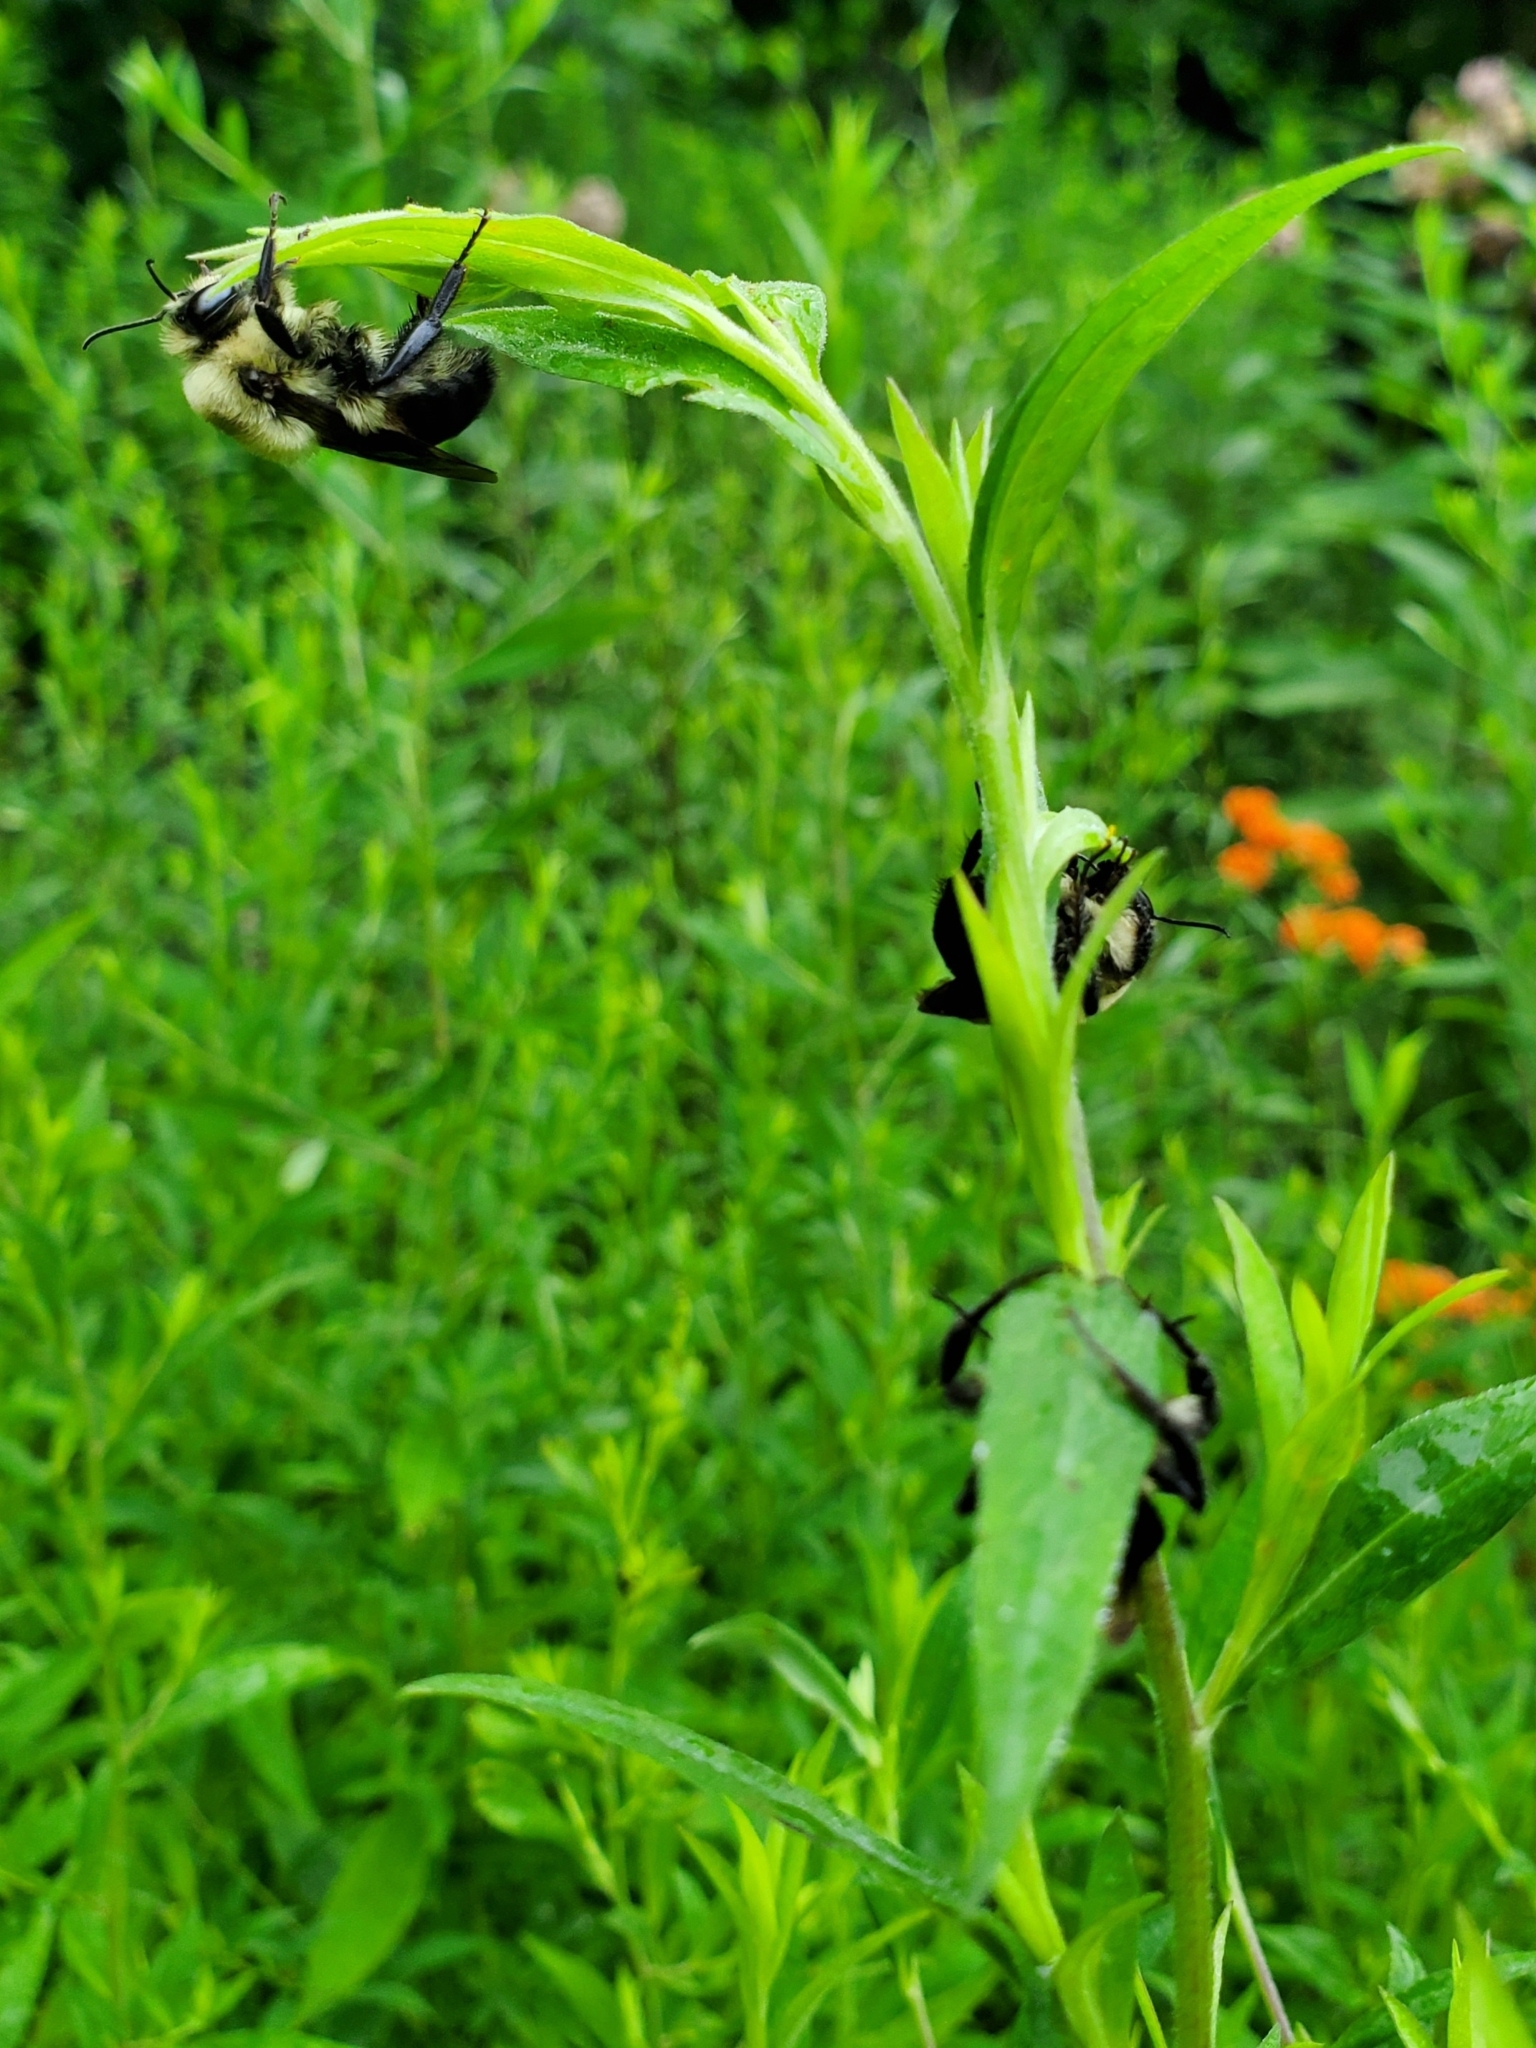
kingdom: Animalia
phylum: Arthropoda
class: Insecta
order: Hymenoptera
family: Apidae
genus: Bombus
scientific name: Bombus griseocollis
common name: Brown-belted bumble bee
